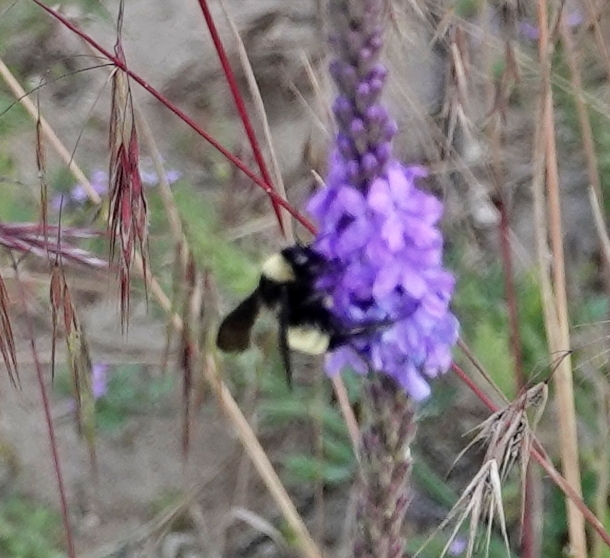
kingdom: Animalia
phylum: Arthropoda
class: Insecta
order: Hymenoptera
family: Apidae
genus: Bombus
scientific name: Bombus pensylvanicus
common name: Bumble bee
